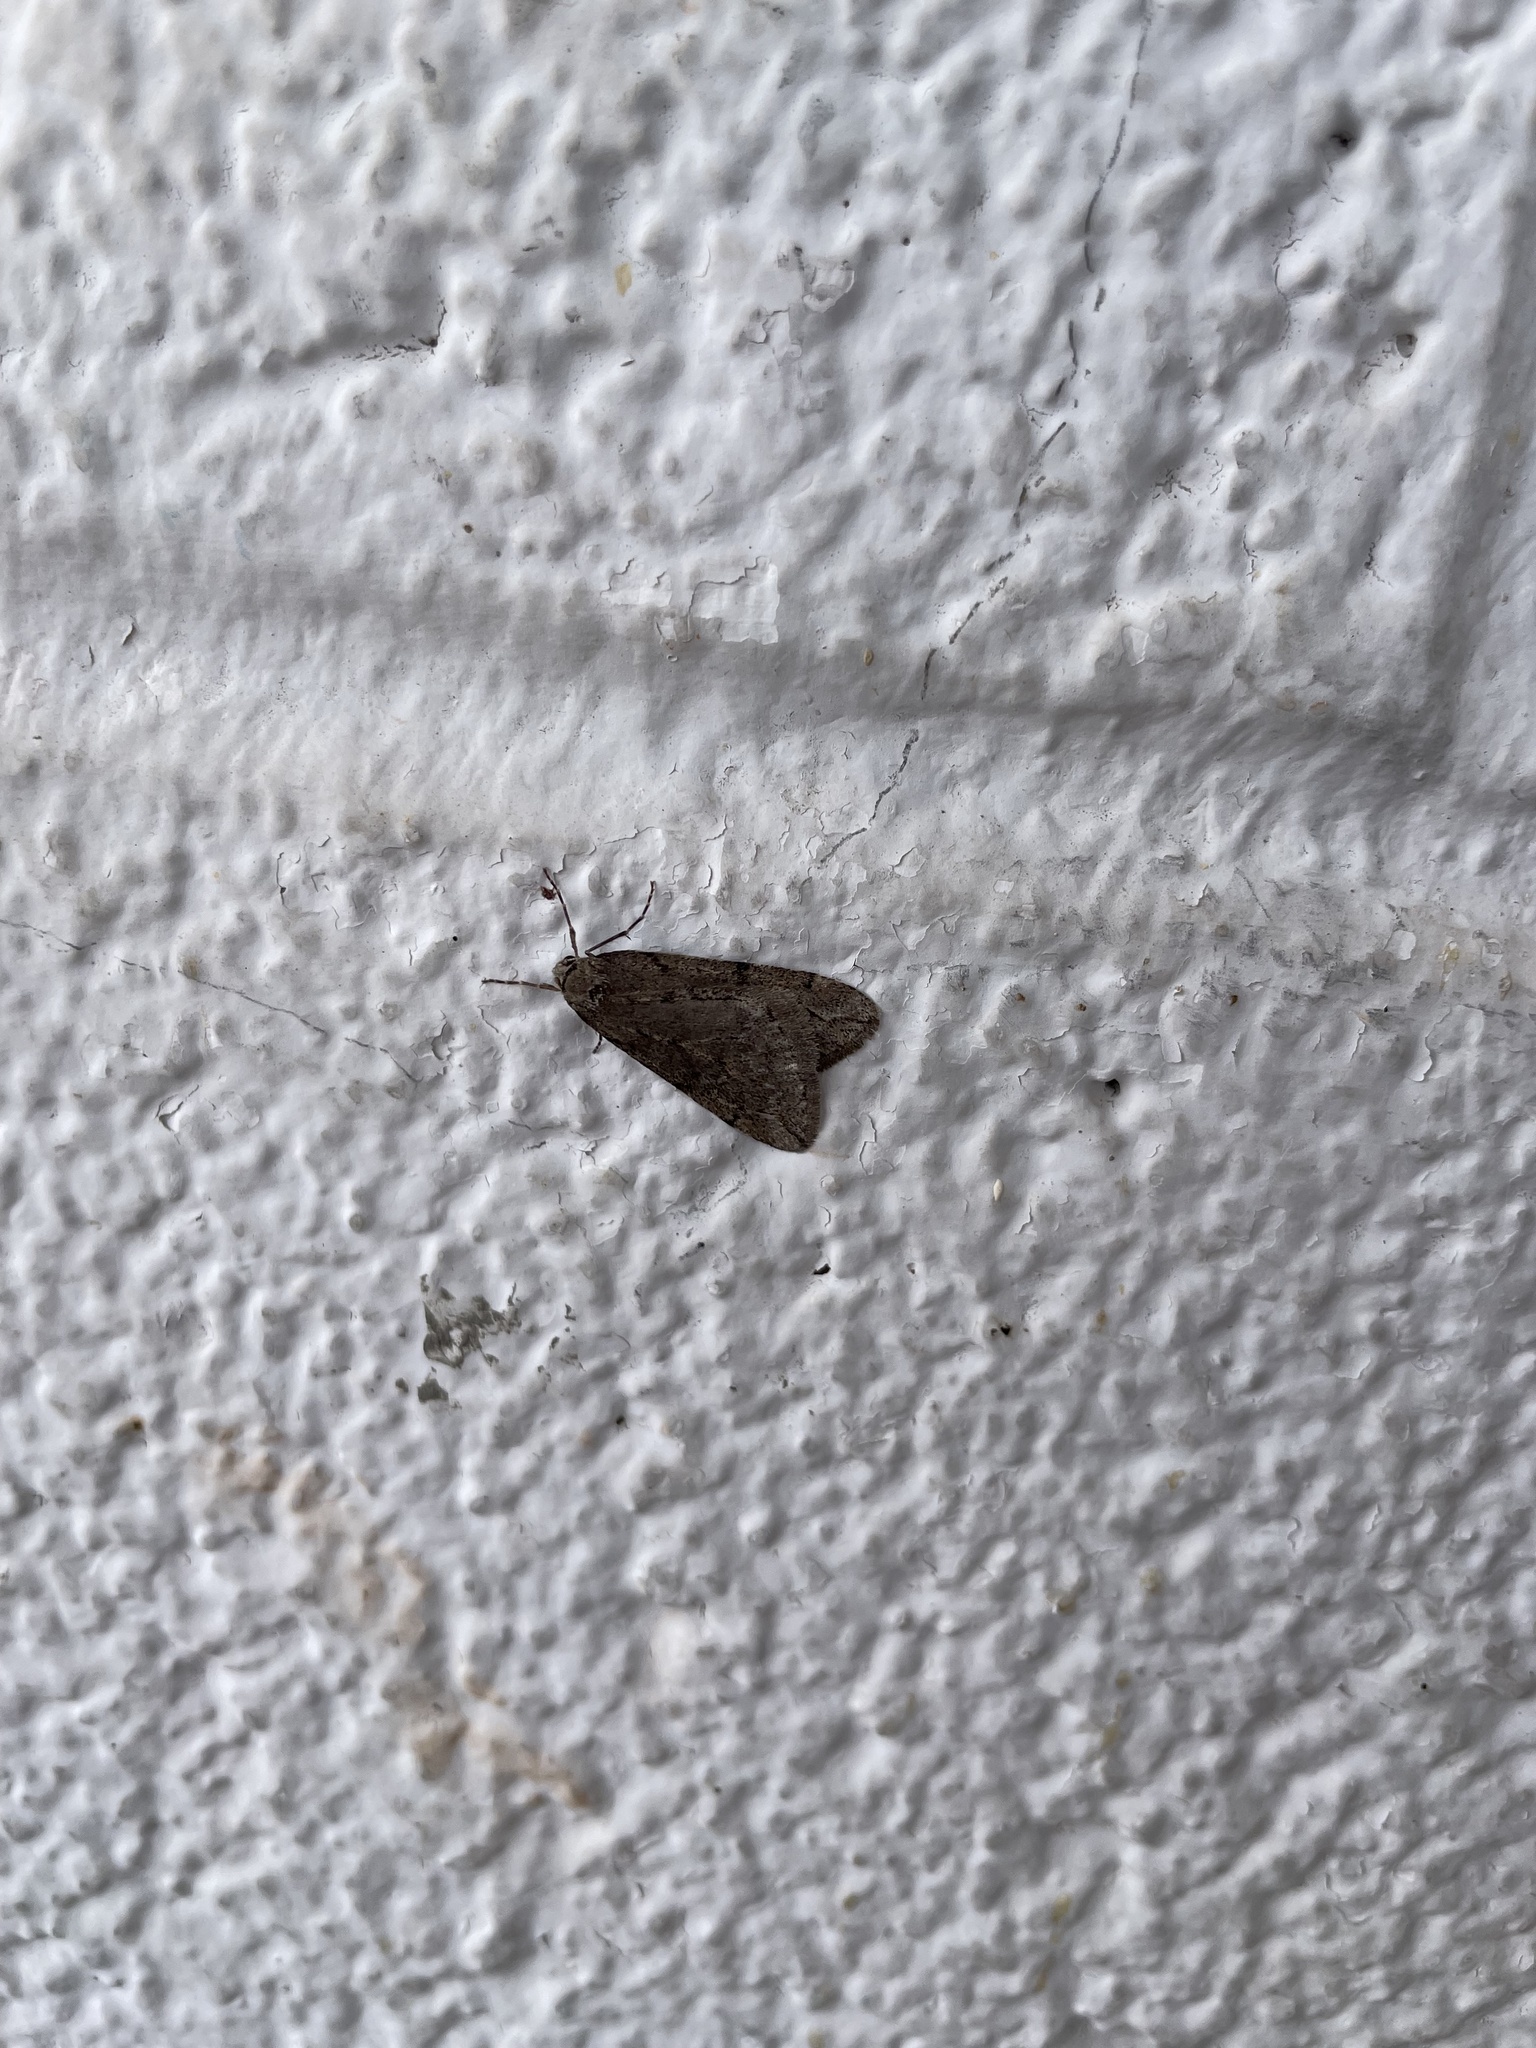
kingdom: Animalia
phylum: Arthropoda
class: Insecta
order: Lepidoptera
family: Geometridae
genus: Paleacrita
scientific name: Paleacrita vernata
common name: Spring cankerworm
